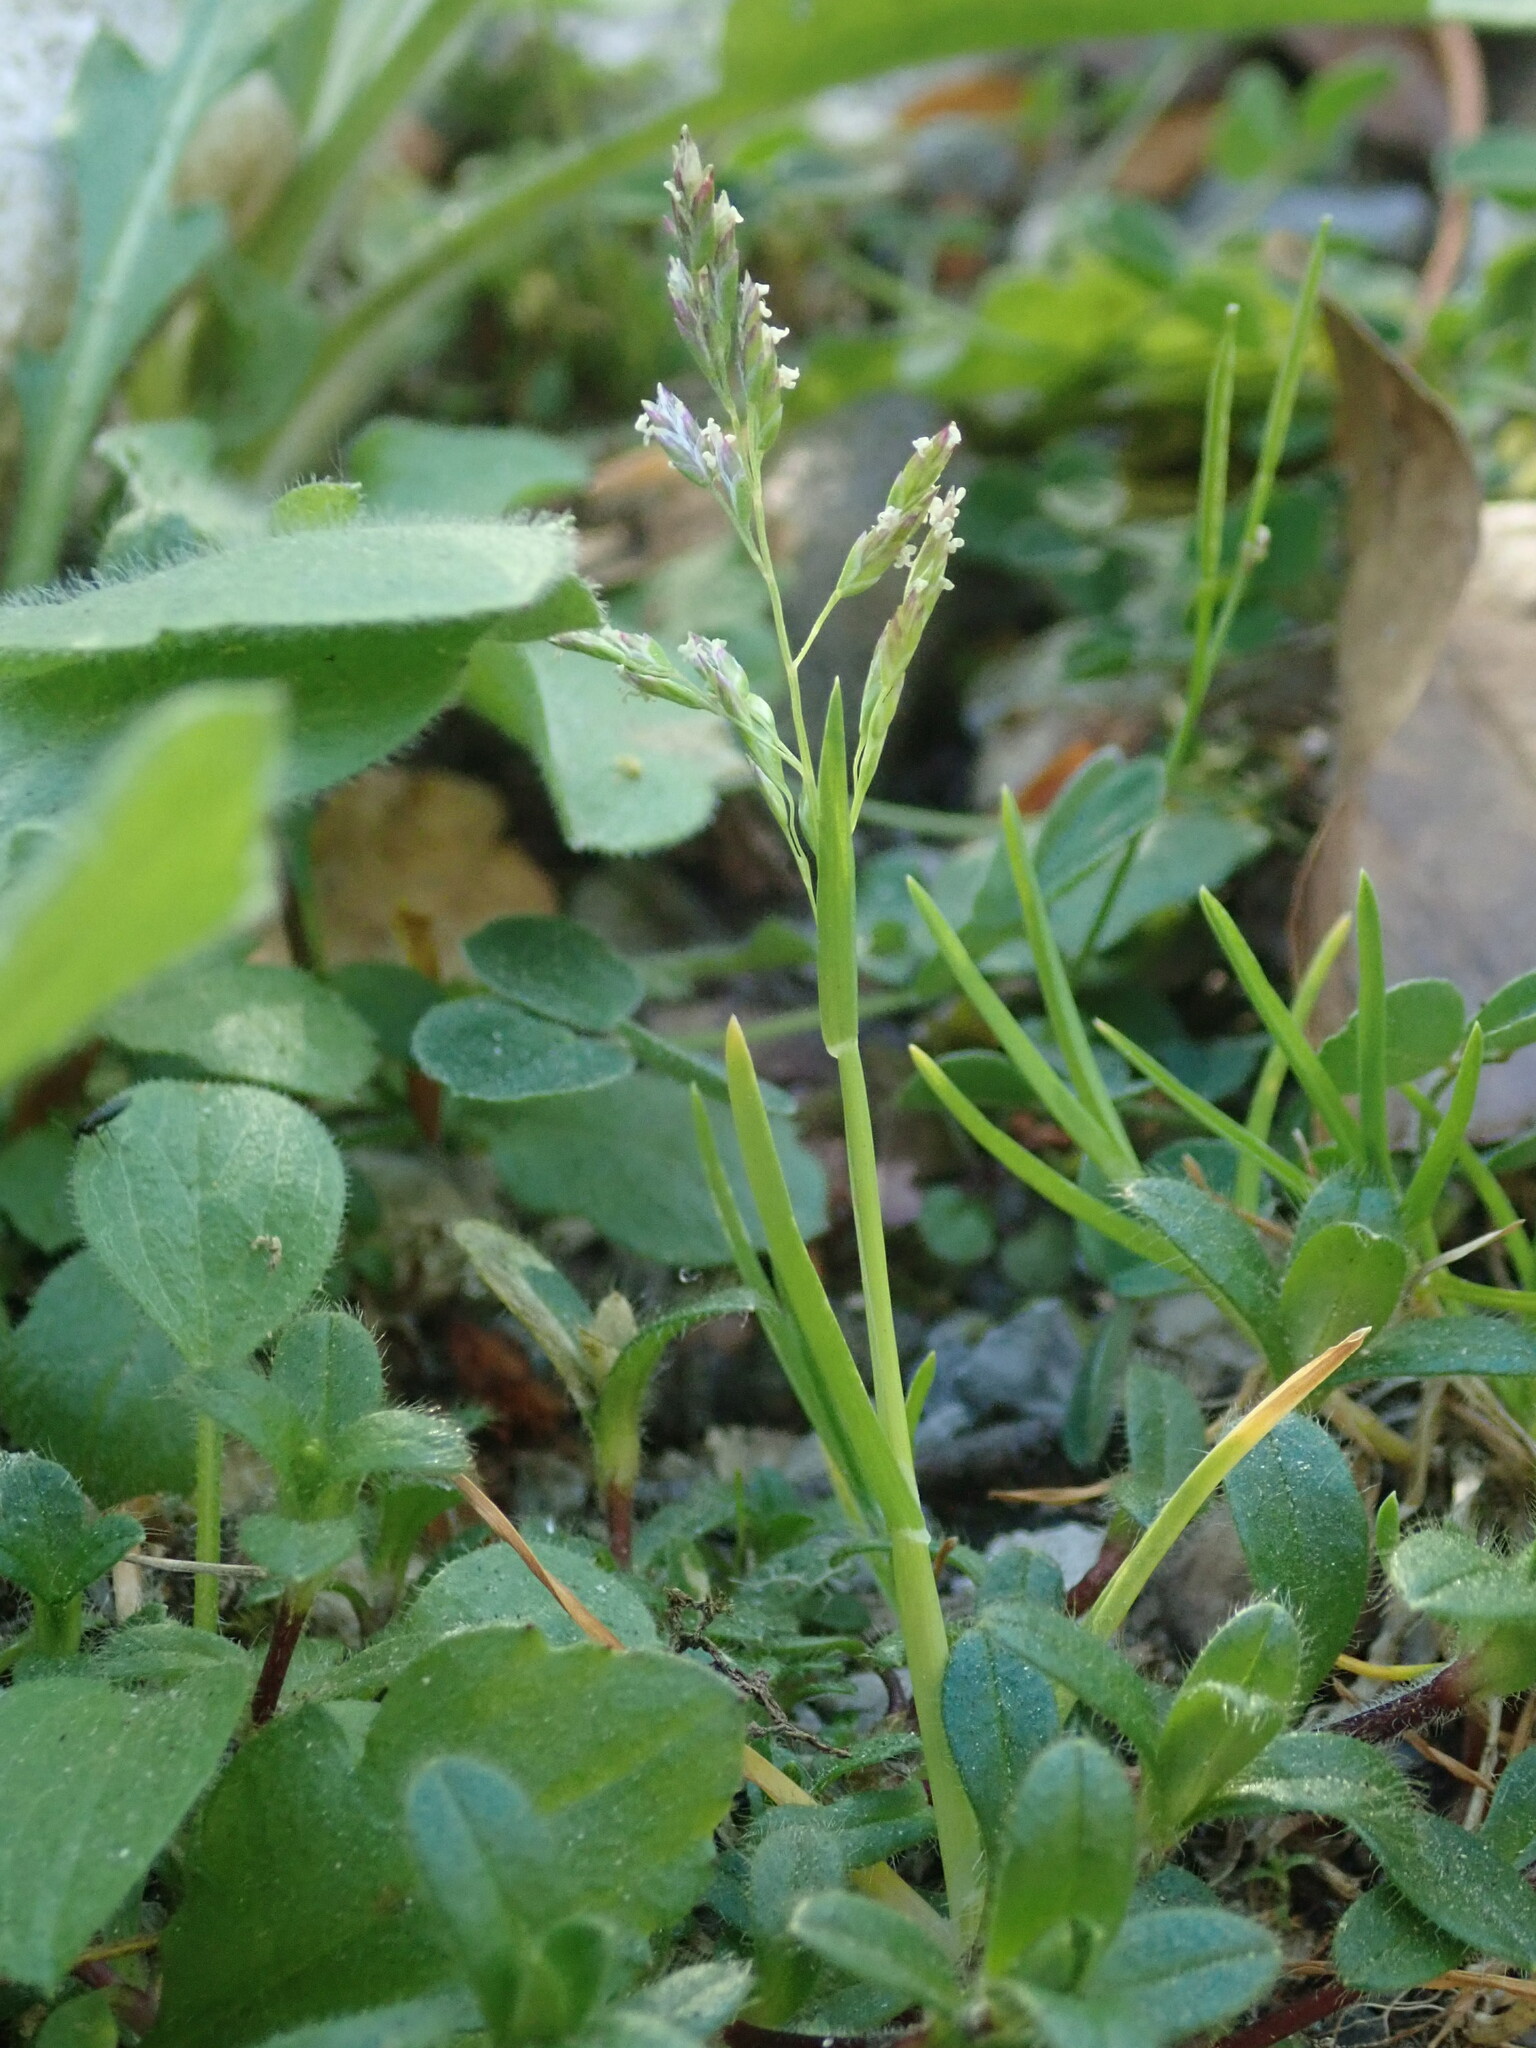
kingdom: Plantae
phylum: Tracheophyta
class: Liliopsida
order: Poales
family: Poaceae
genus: Poa
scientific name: Poa annua
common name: Annual bluegrass
